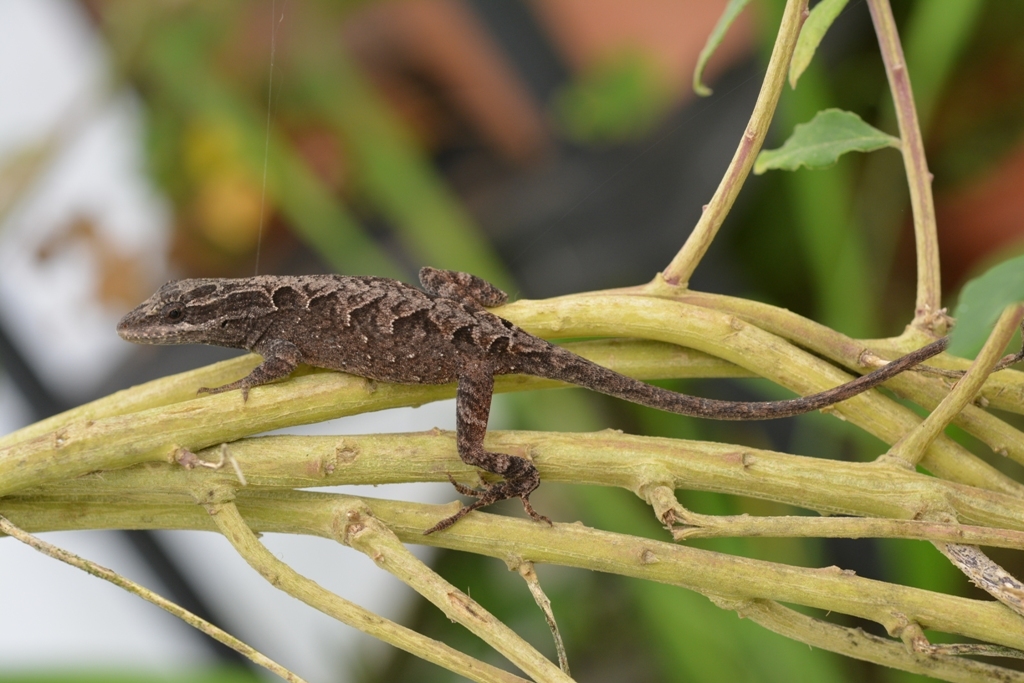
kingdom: Animalia
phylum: Chordata
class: Squamata
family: Dactyloidae
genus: Anolis
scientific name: Anolis anisolepis
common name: Chiapas ornate anole
